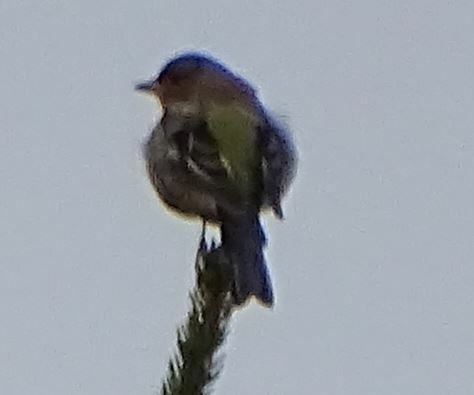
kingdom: Animalia
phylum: Chordata
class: Aves
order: Passeriformes
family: Fringillidae
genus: Fringilla
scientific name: Fringilla coelebs
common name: Common chaffinch
